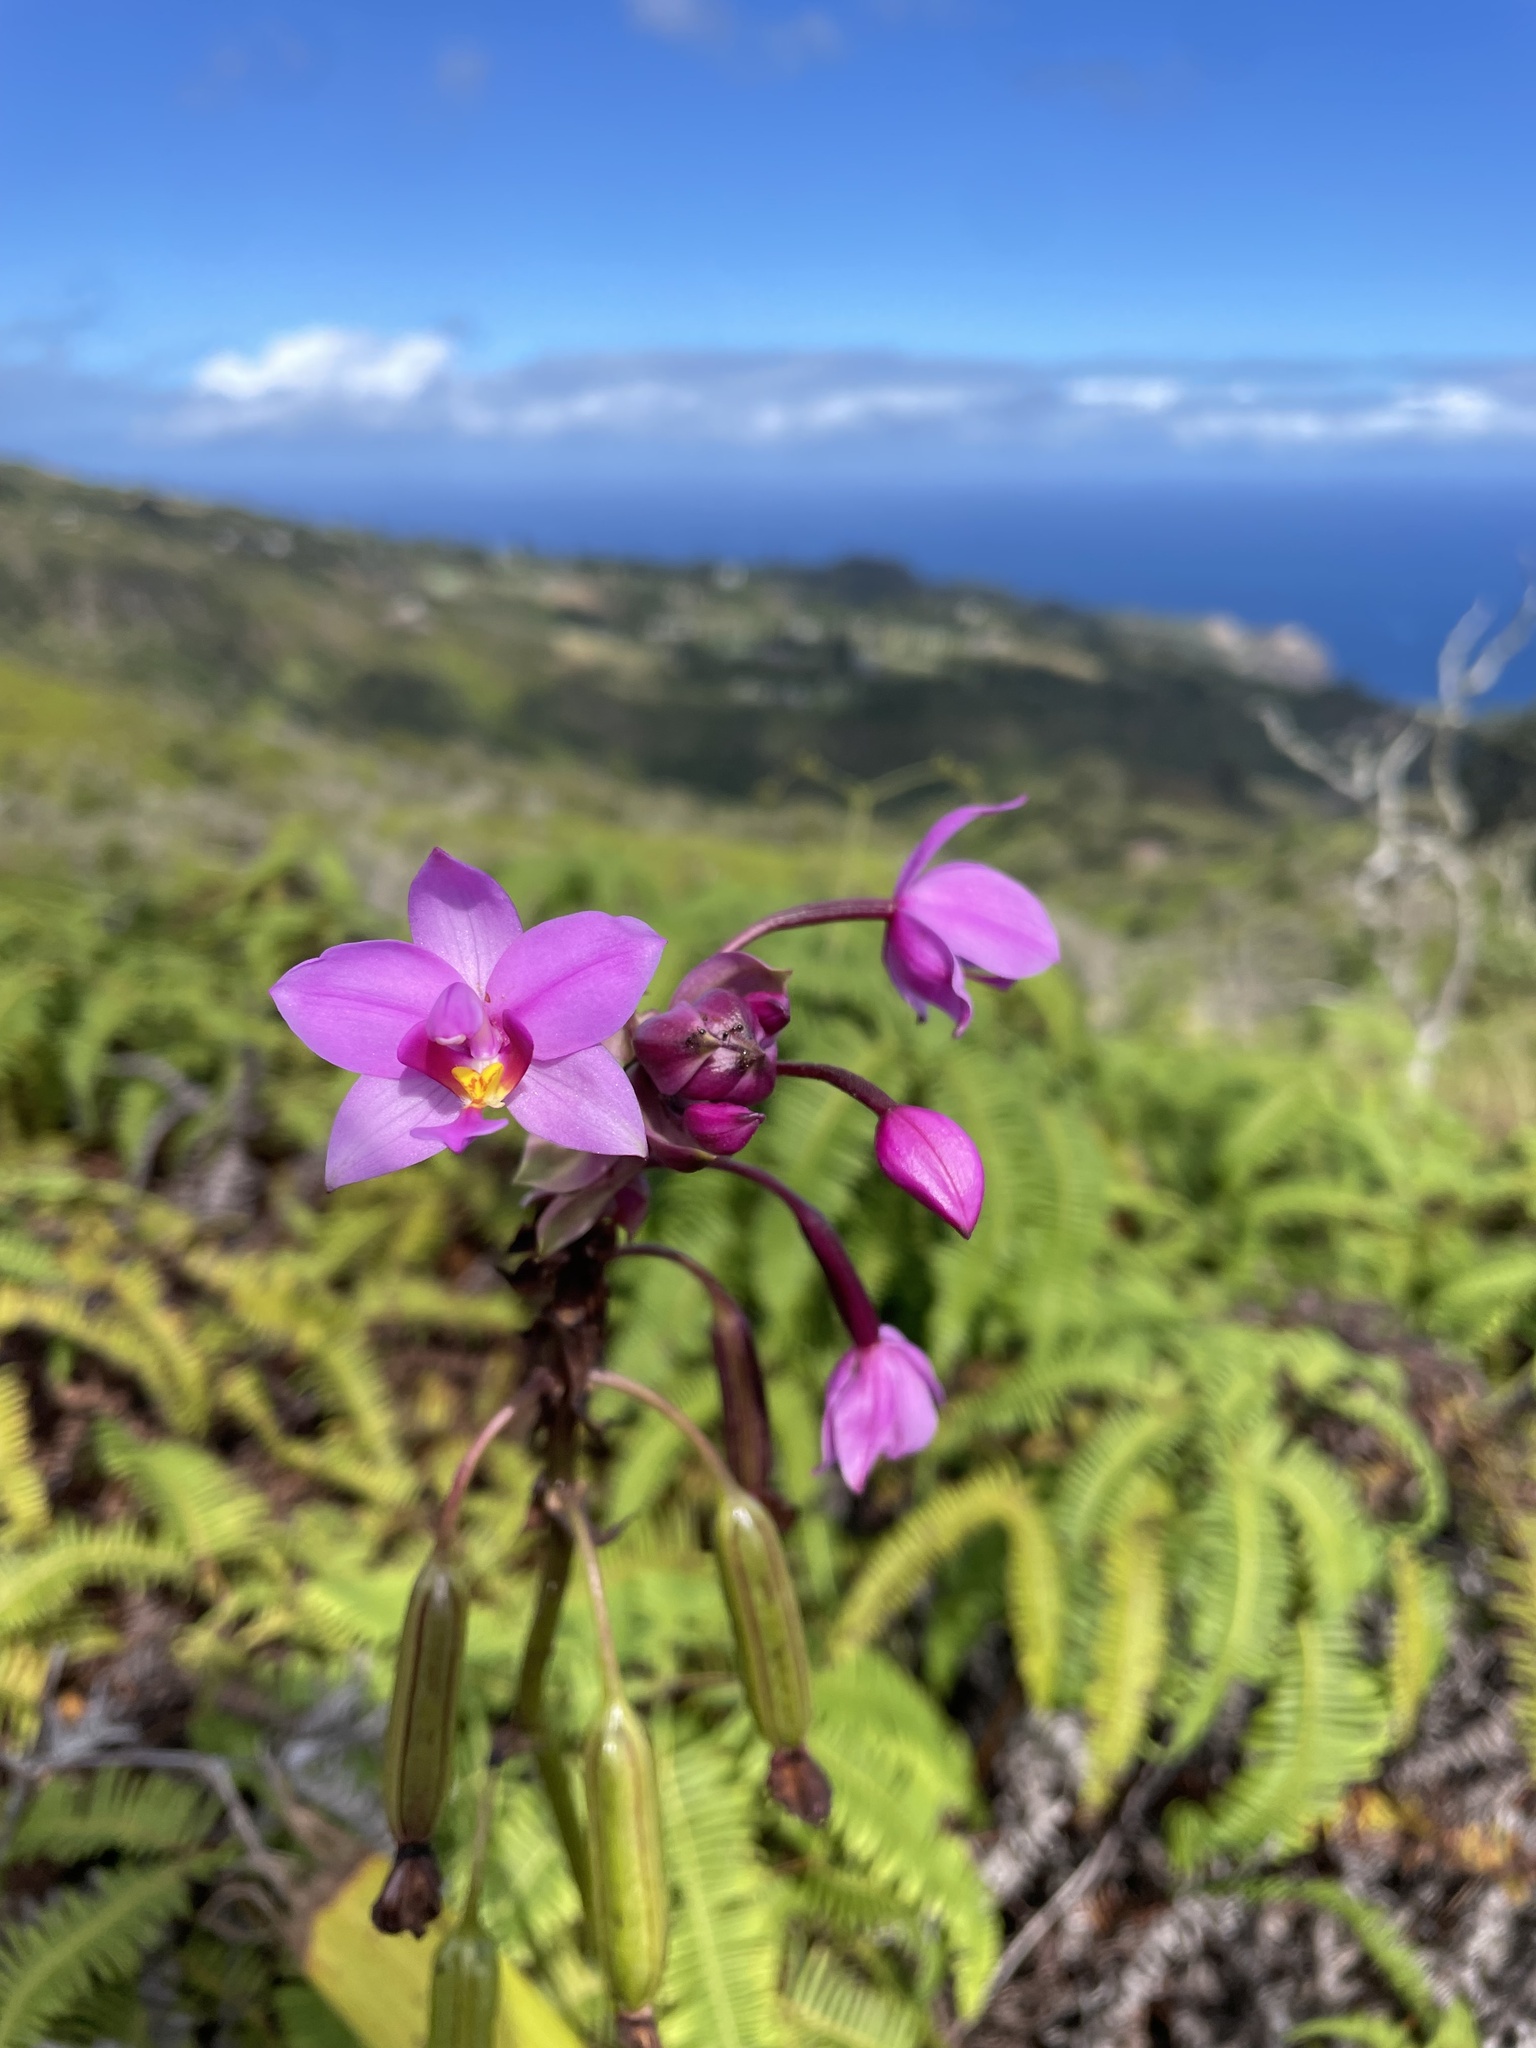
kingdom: Plantae
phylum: Tracheophyta
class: Liliopsida
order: Asparagales
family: Orchidaceae
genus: Spathoglottis
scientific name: Spathoglottis plicata
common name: Philippine ground orchid
